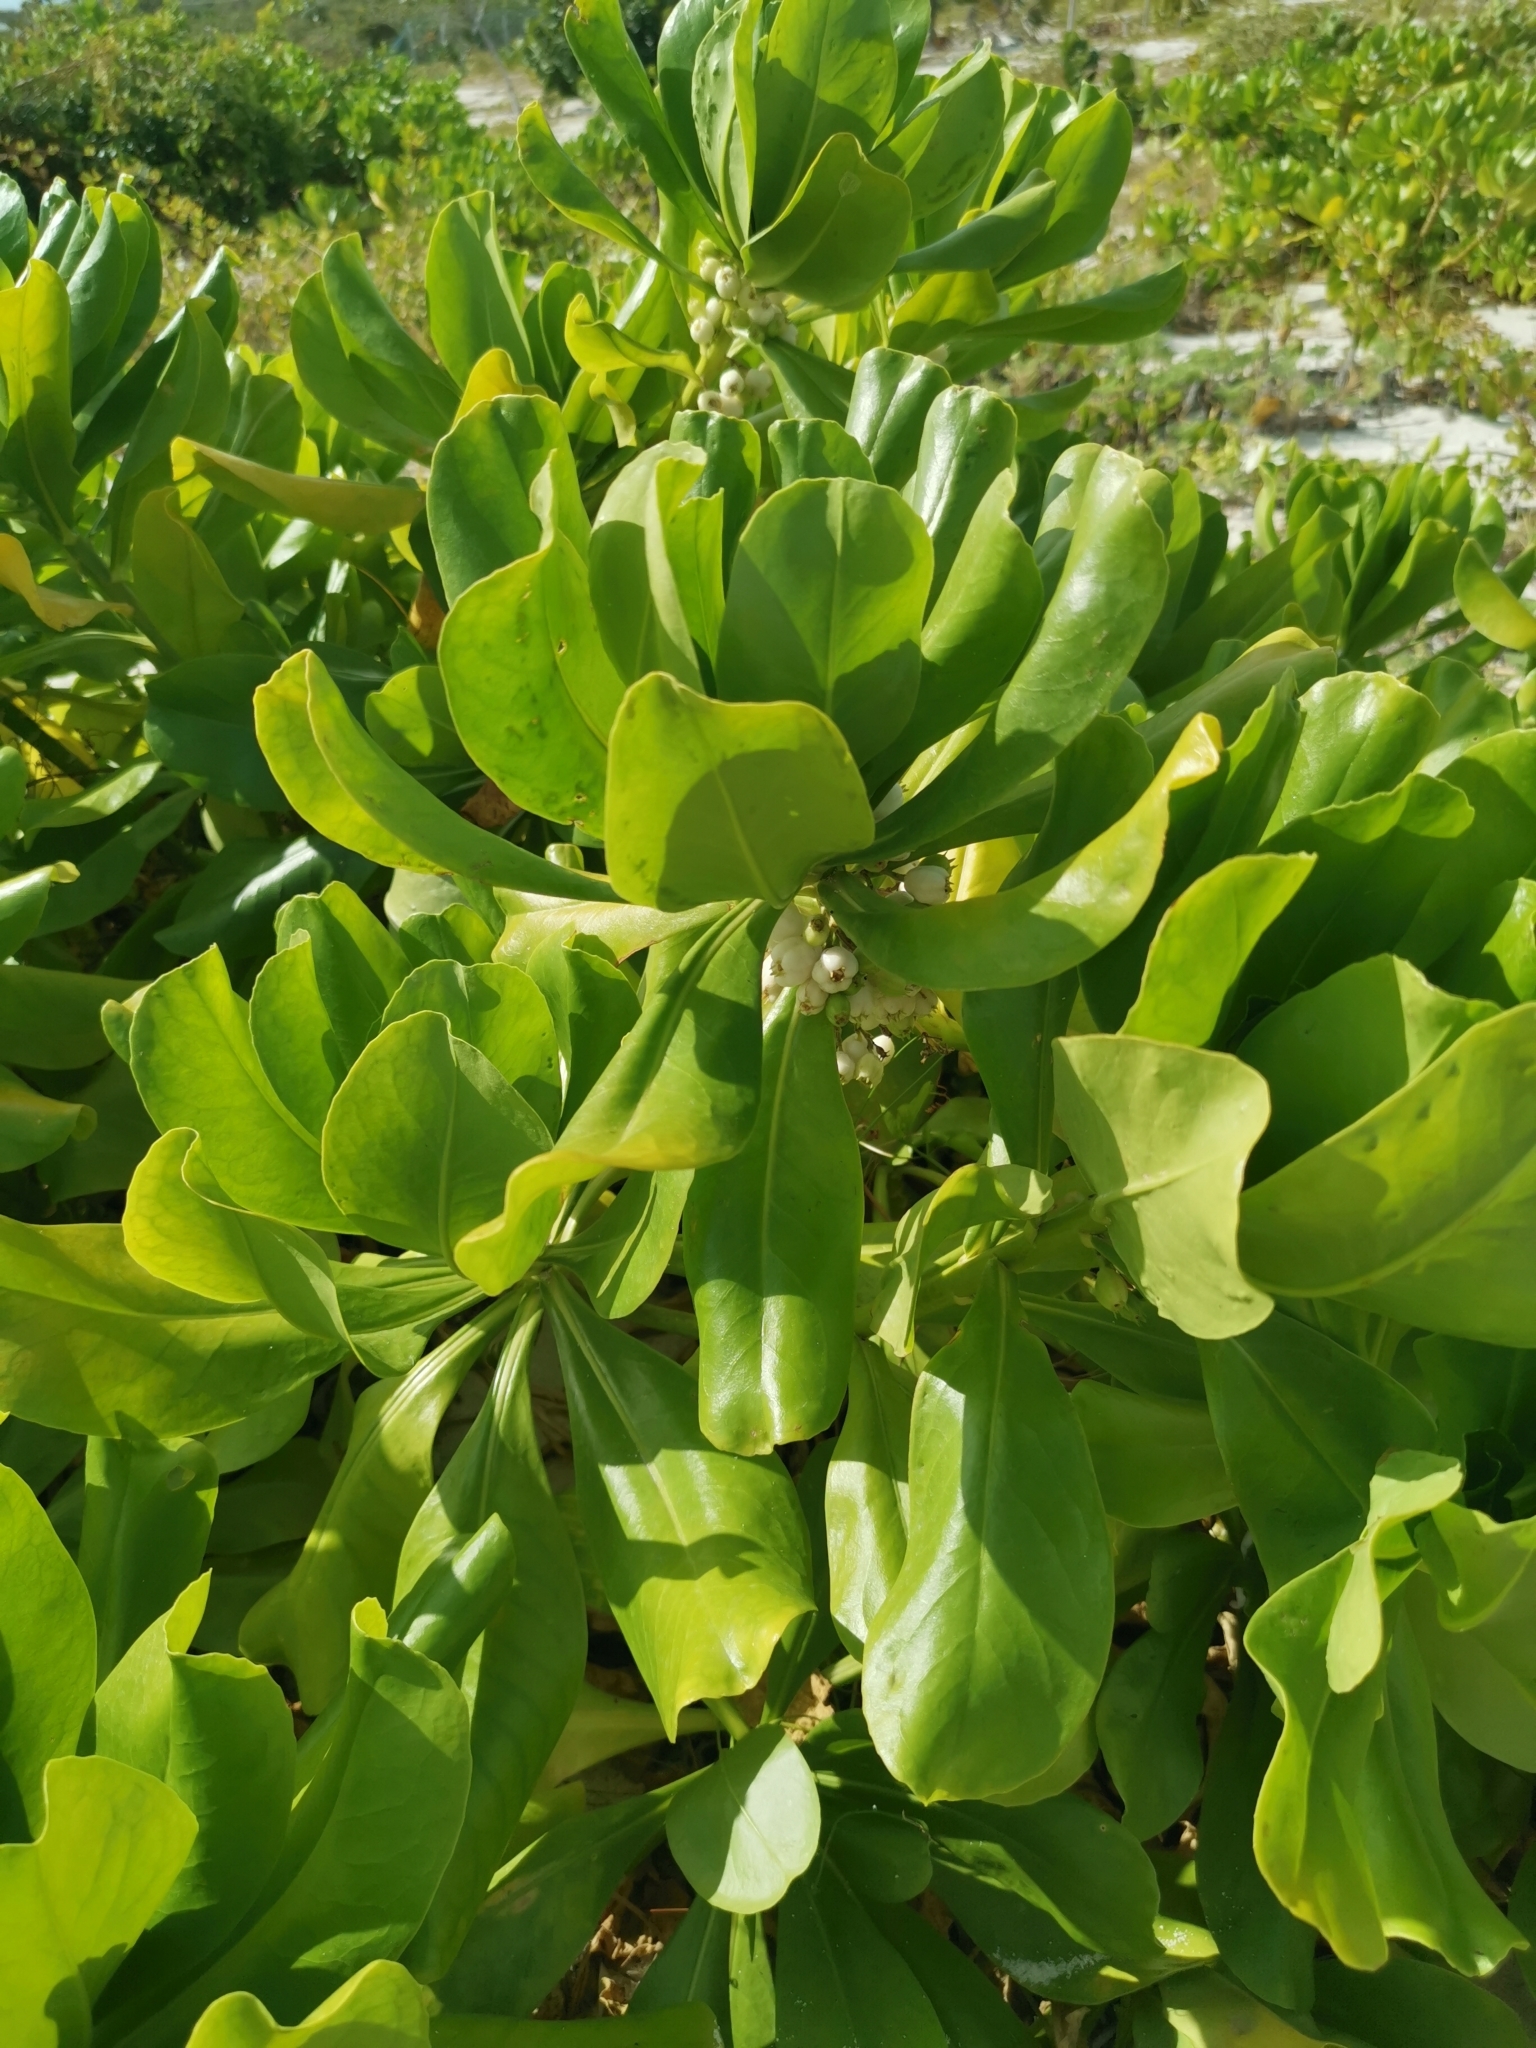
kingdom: Plantae
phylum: Tracheophyta
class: Magnoliopsida
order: Asterales
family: Goodeniaceae
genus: Scaevola
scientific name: Scaevola taccada
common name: Sea lettucetree
